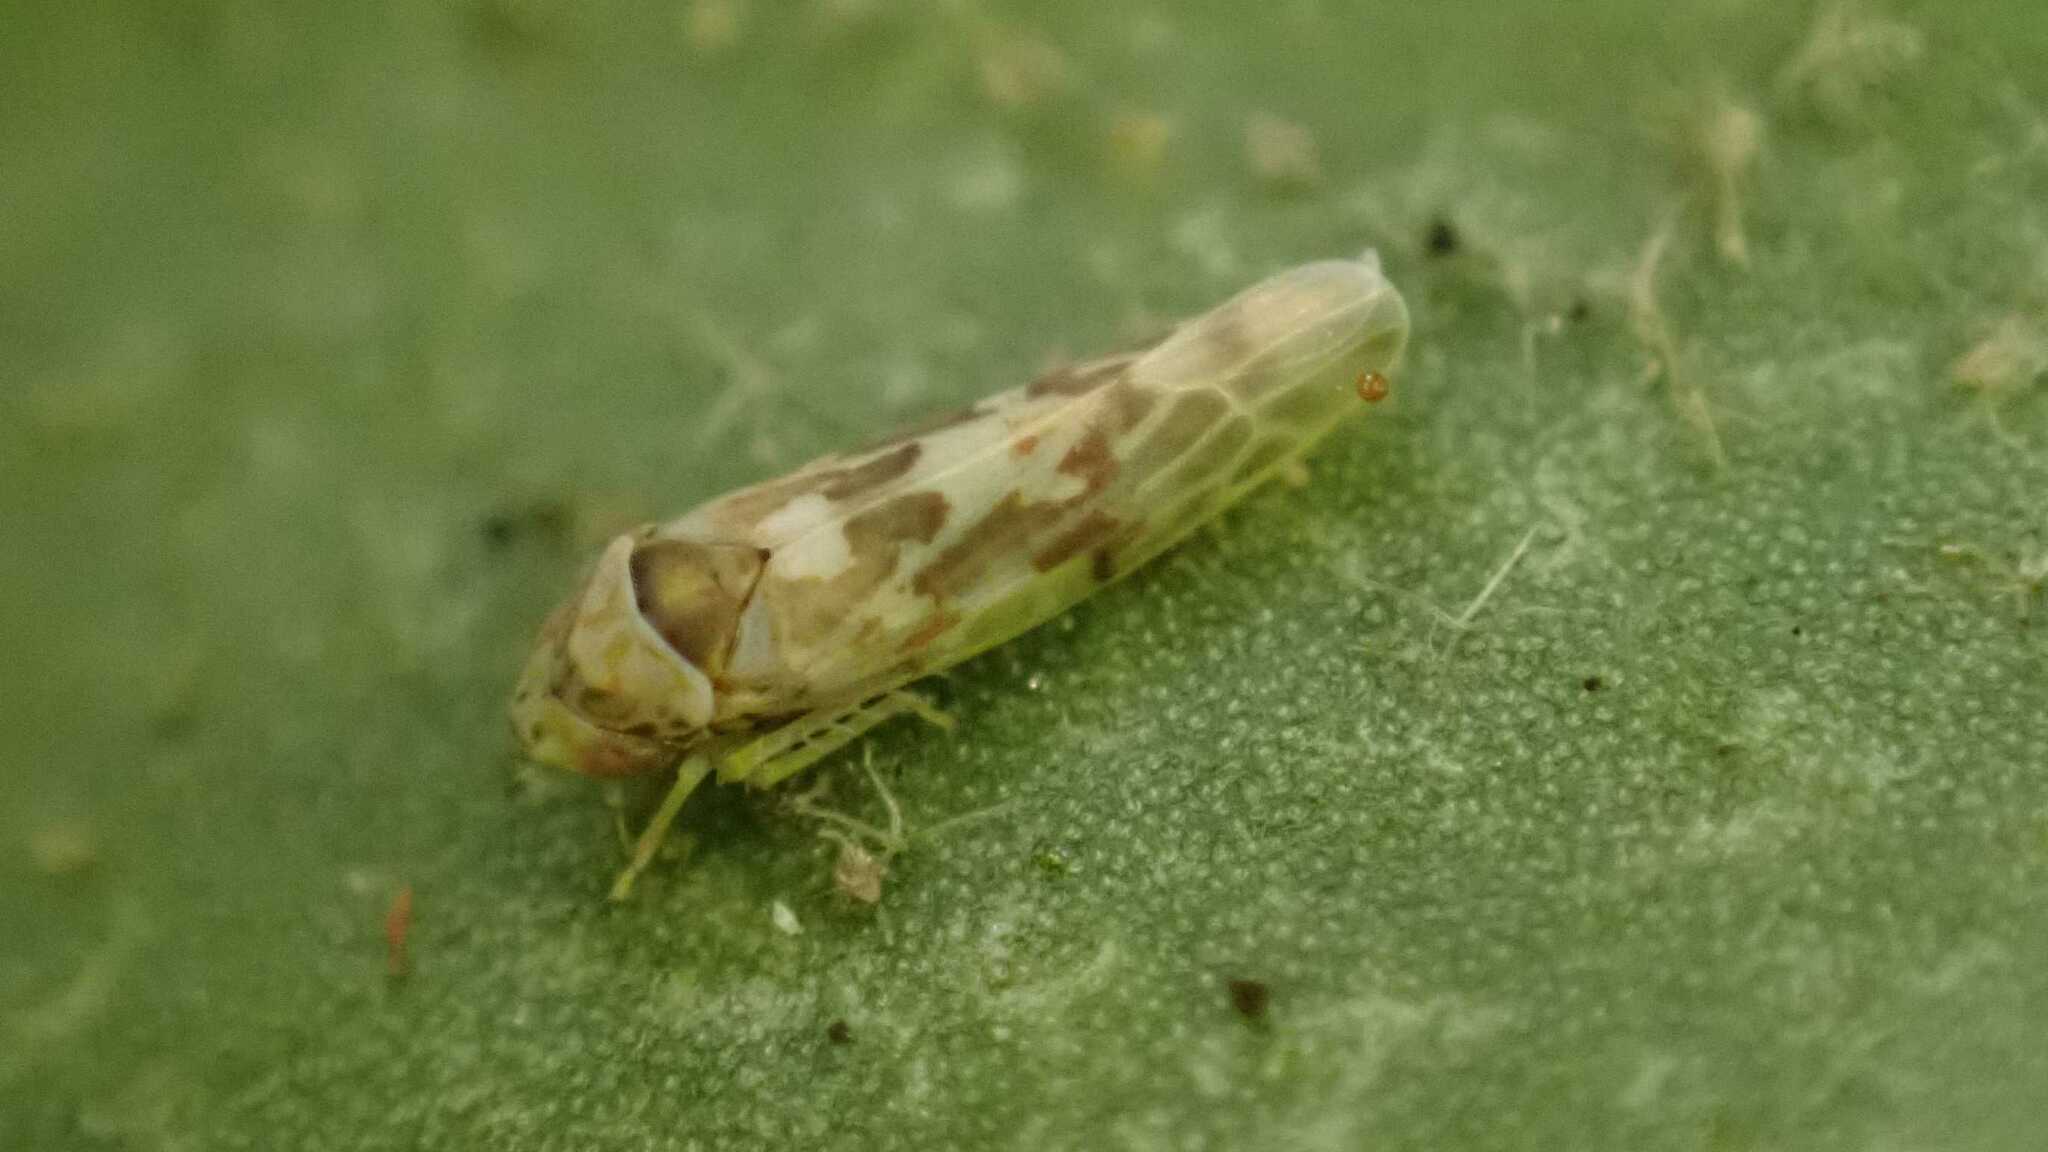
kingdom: Animalia
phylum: Arthropoda
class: Insecta
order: Hemiptera
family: Cicadellidae
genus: Tautoneura
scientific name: Tautoneura polymitusa
